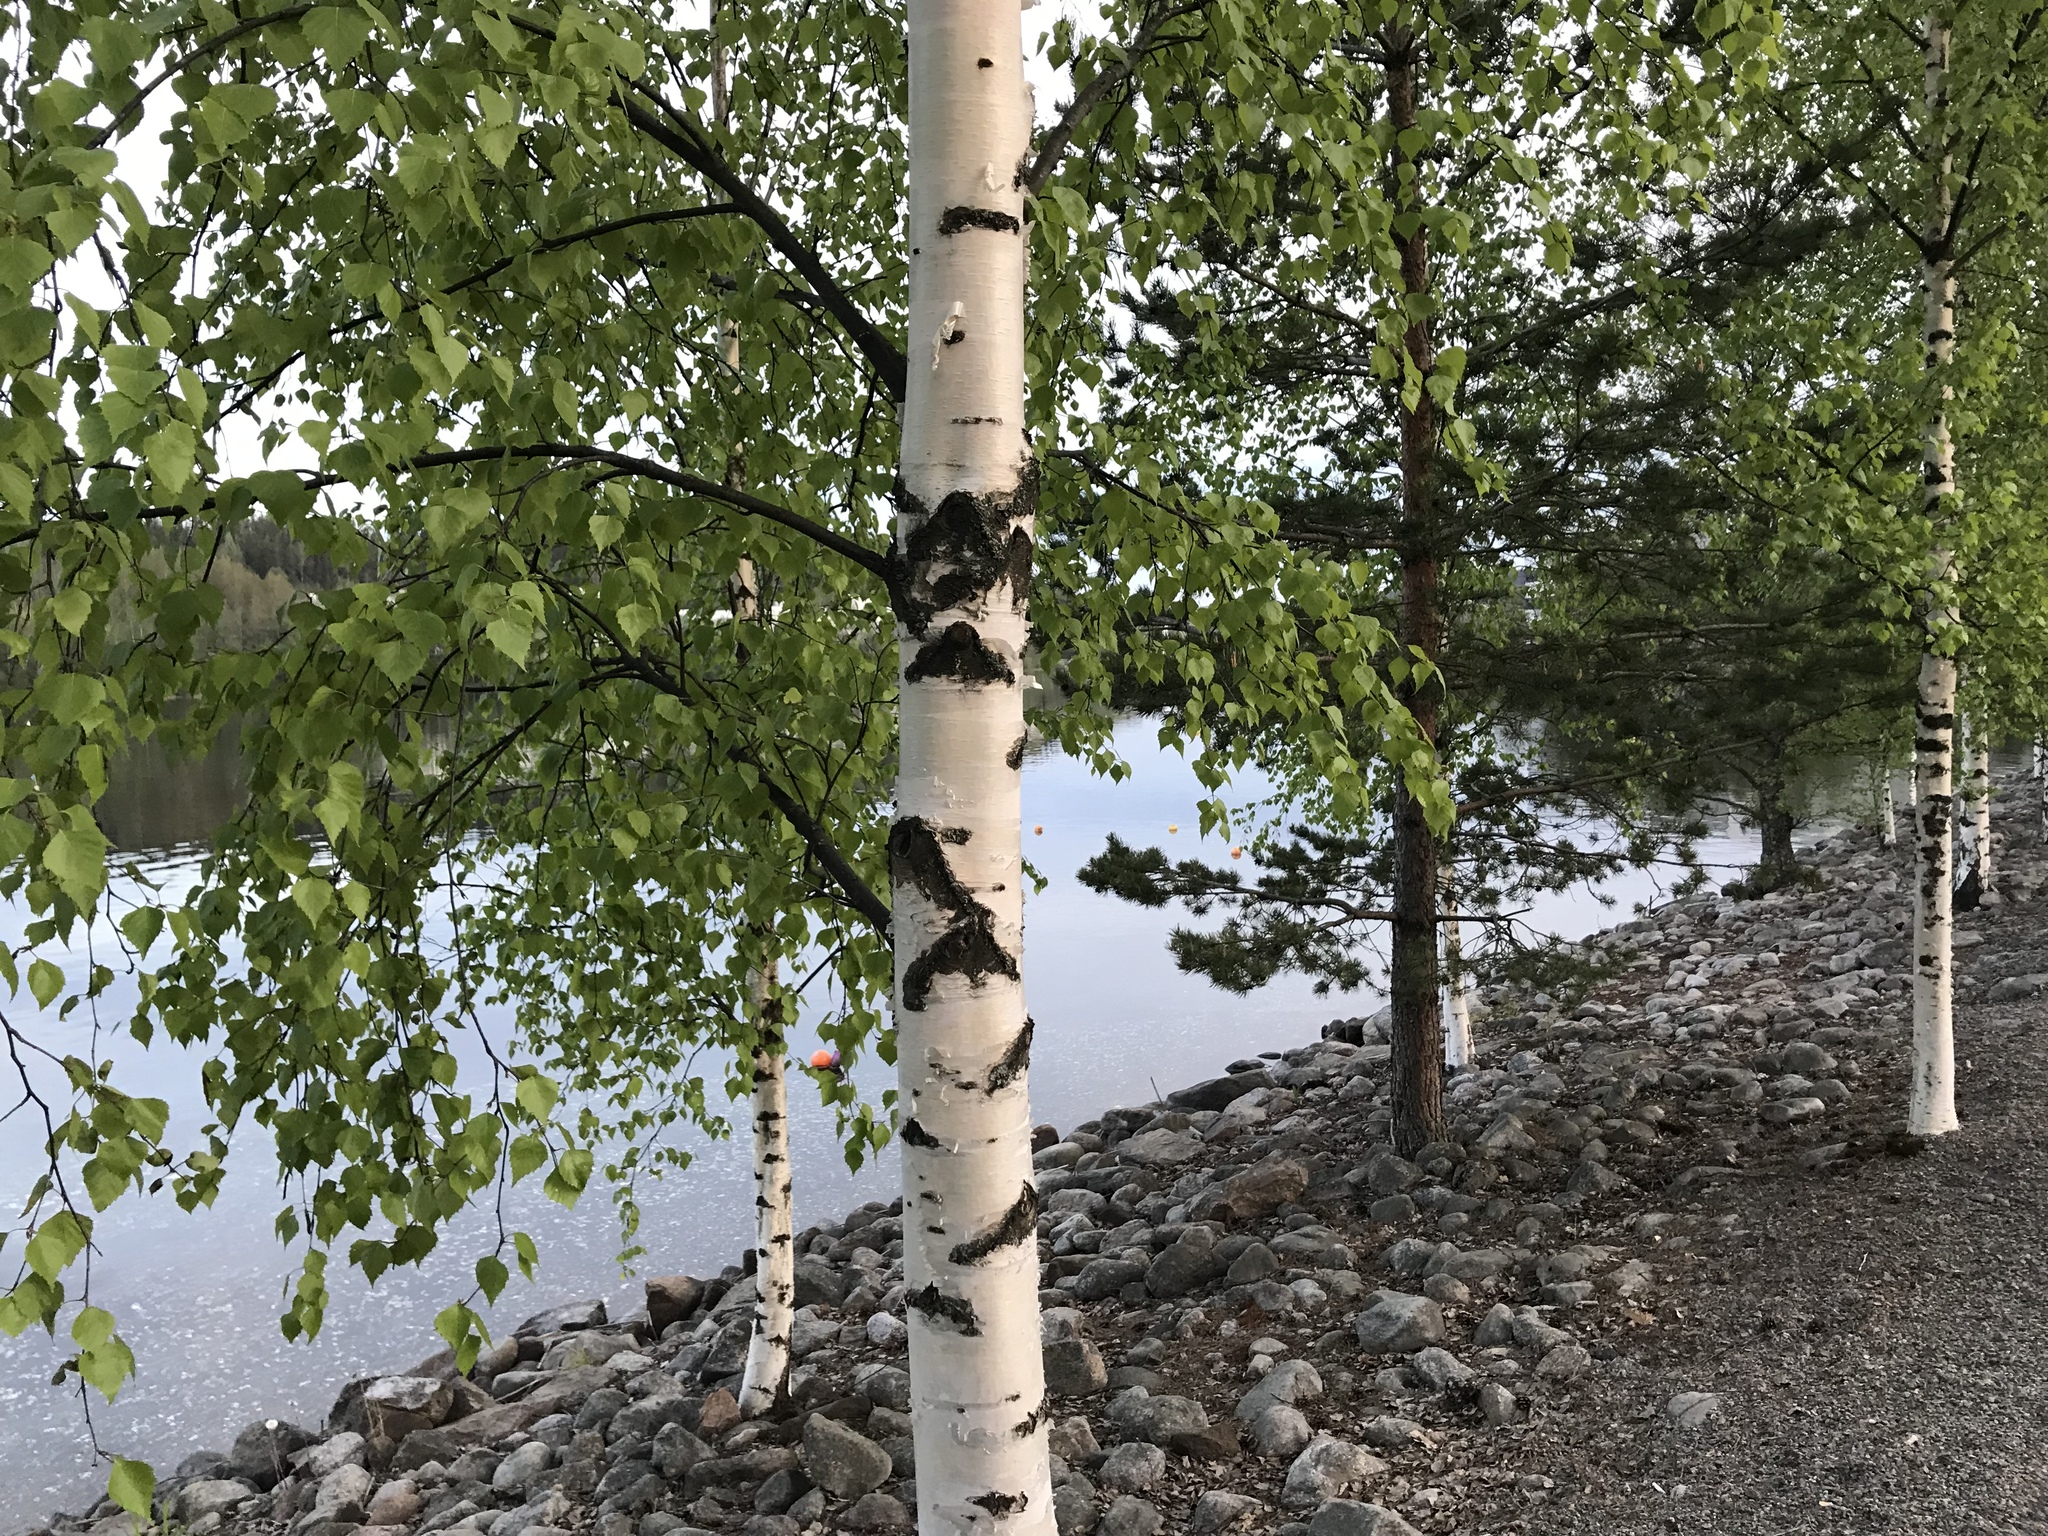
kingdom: Plantae
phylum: Tracheophyta
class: Magnoliopsida
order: Fagales
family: Betulaceae
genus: Betula
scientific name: Betula pendula
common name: Silver birch
